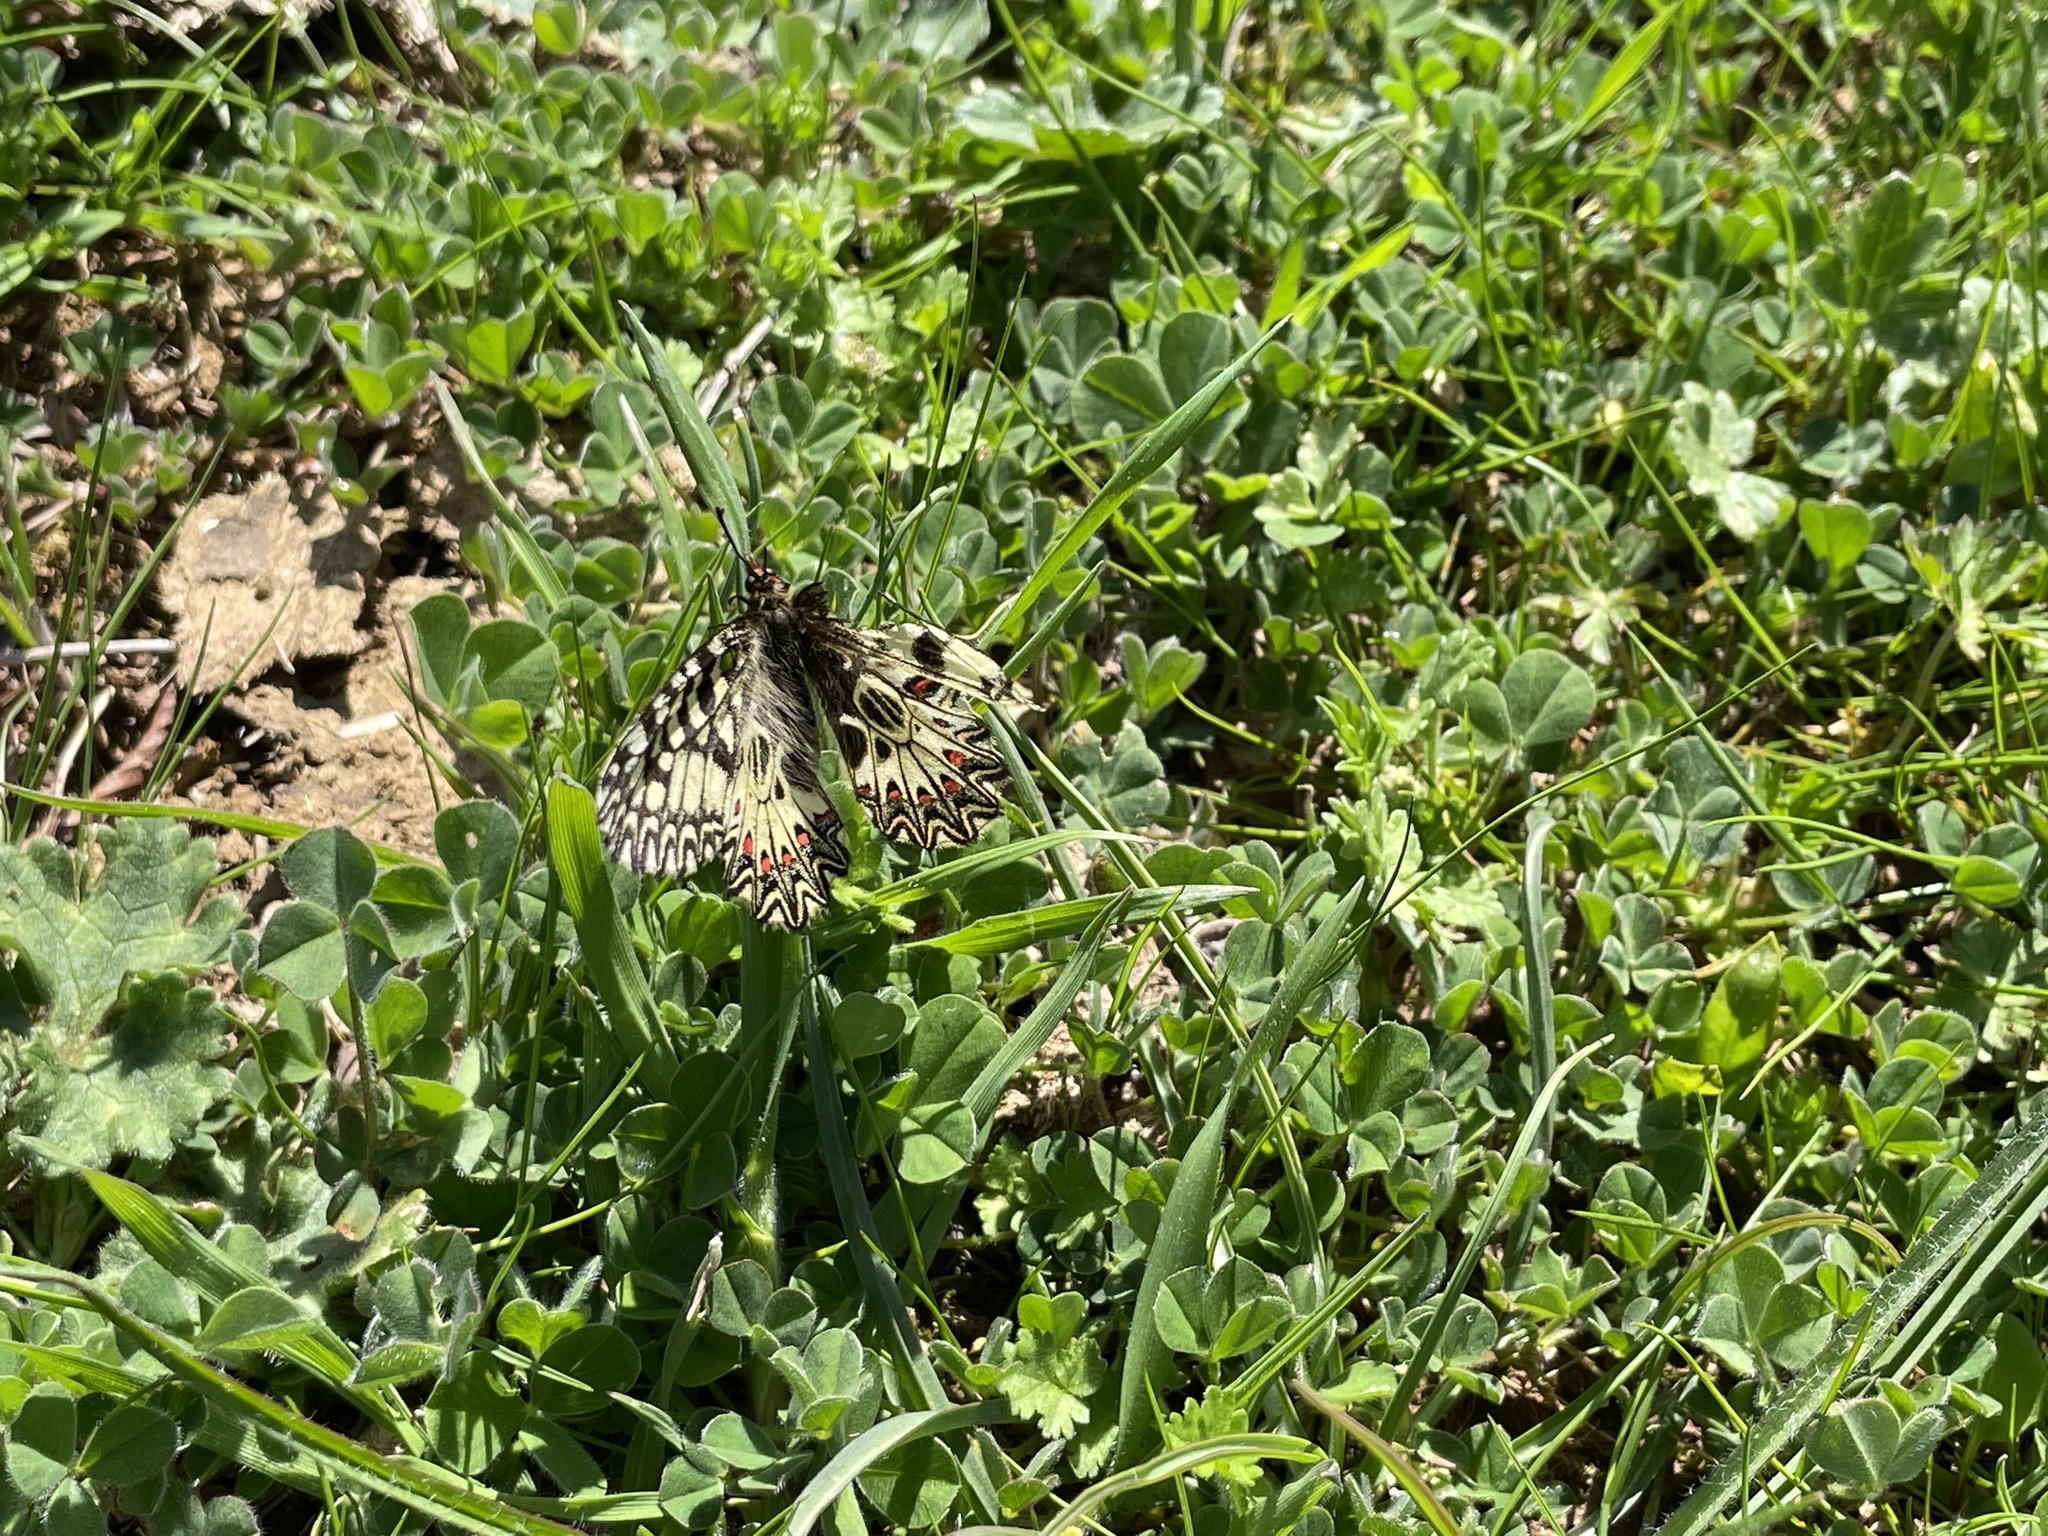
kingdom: Animalia
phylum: Arthropoda
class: Insecta
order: Lepidoptera
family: Papilionidae
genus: Zerynthia
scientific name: Zerynthia polyxena
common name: Southern festoon
